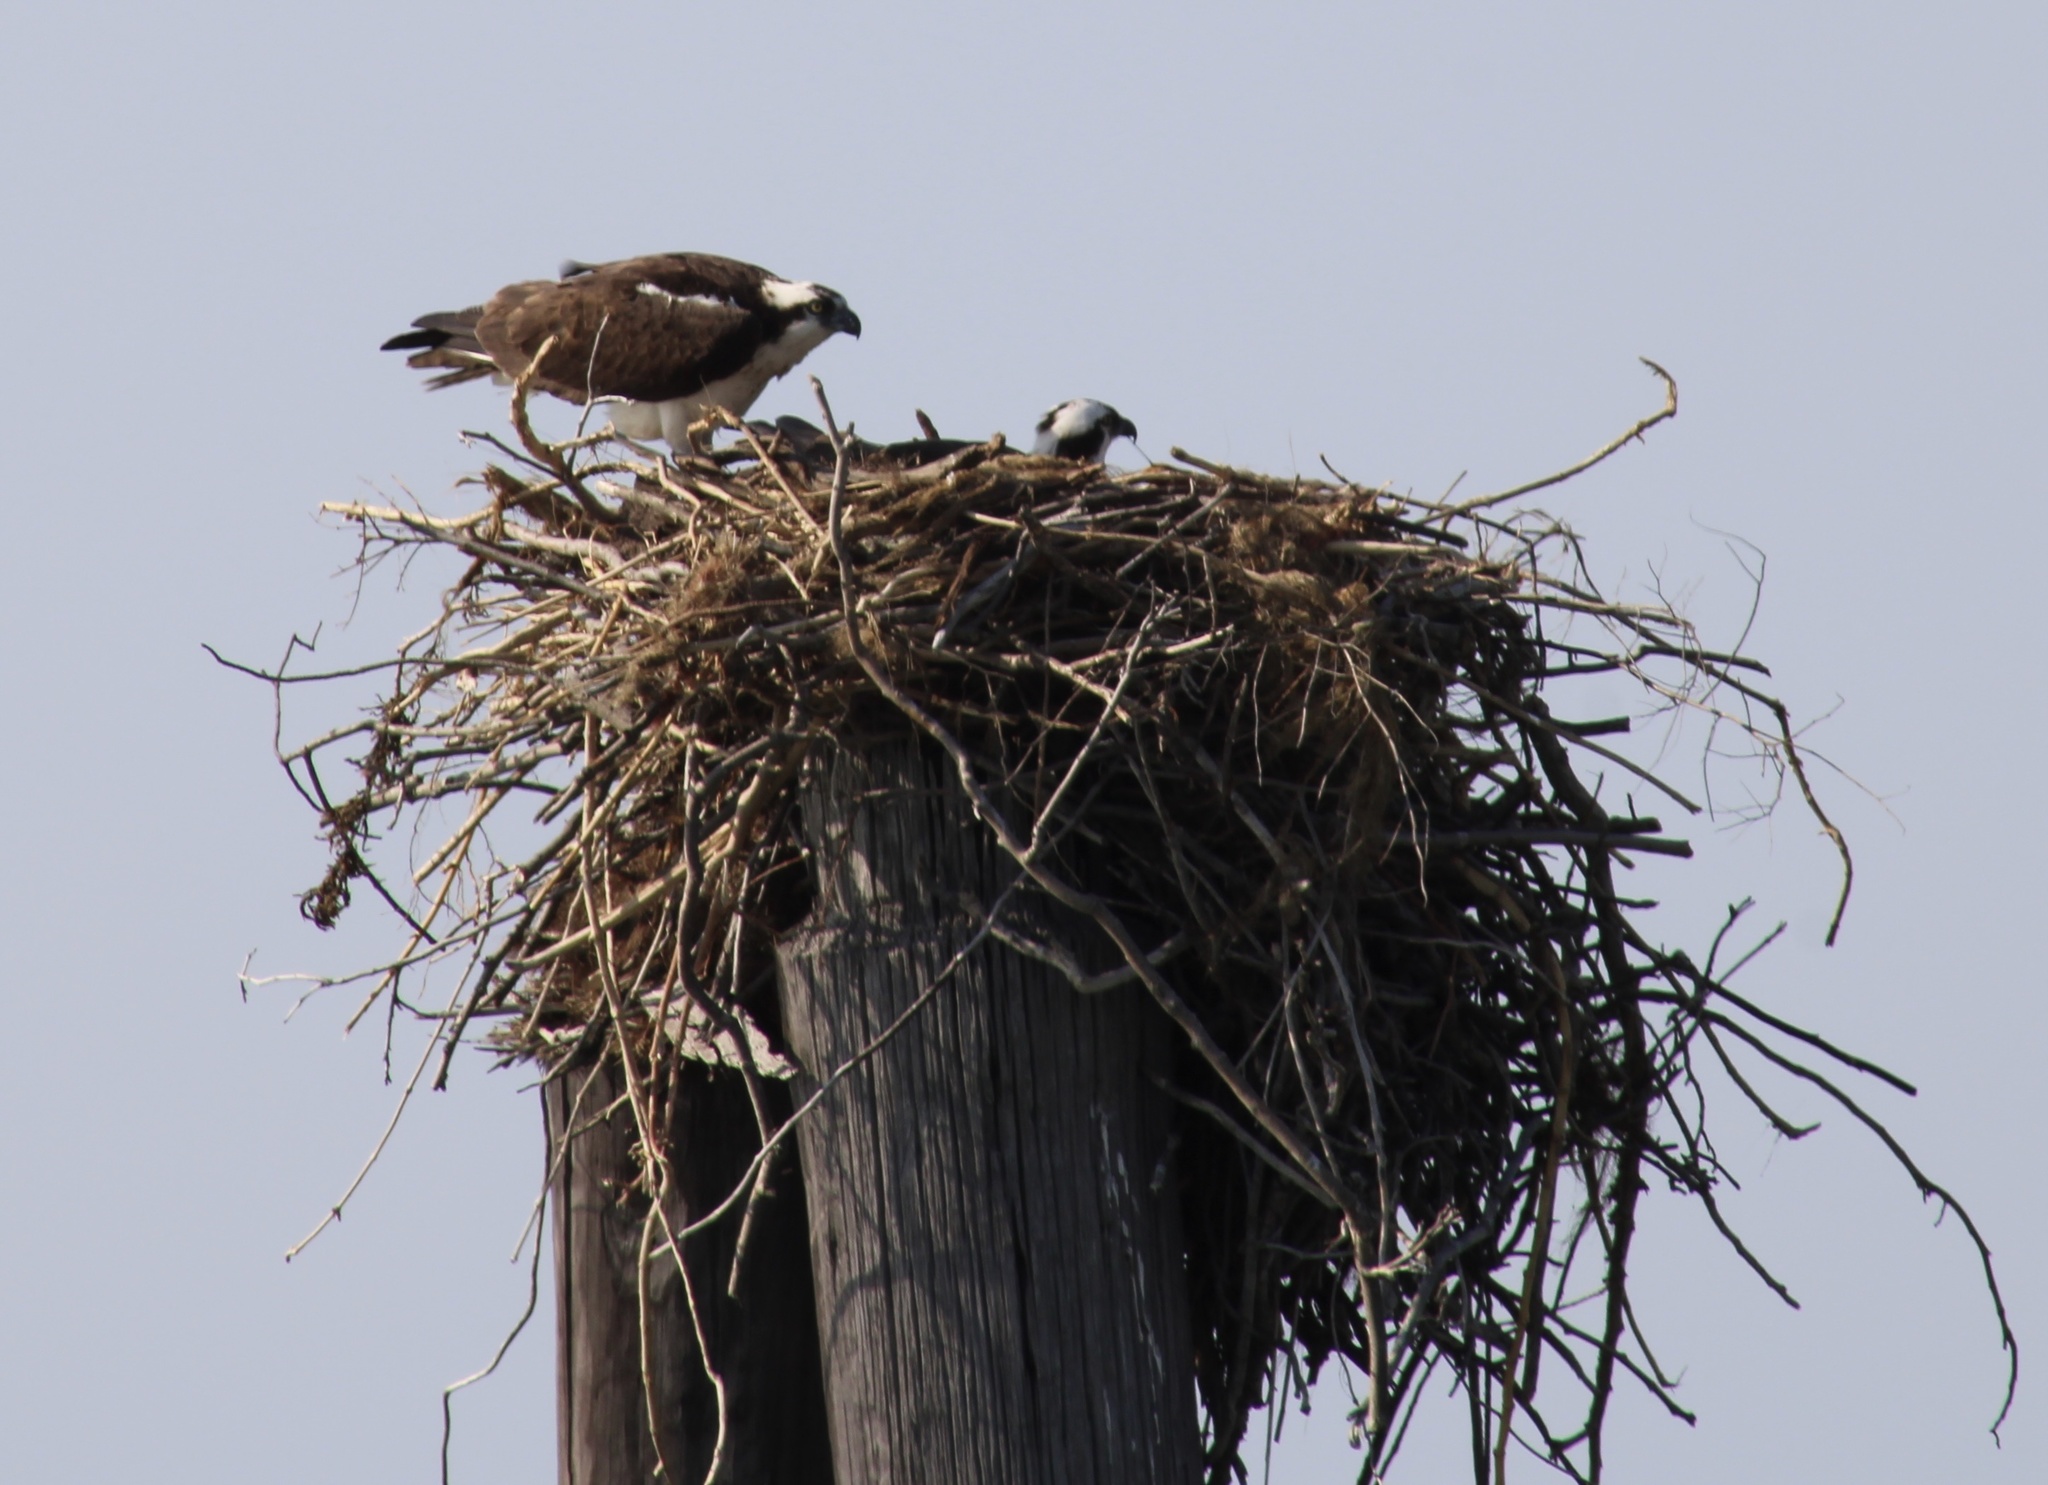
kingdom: Animalia
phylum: Chordata
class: Aves
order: Accipitriformes
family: Pandionidae
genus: Pandion
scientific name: Pandion haliaetus
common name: Osprey
